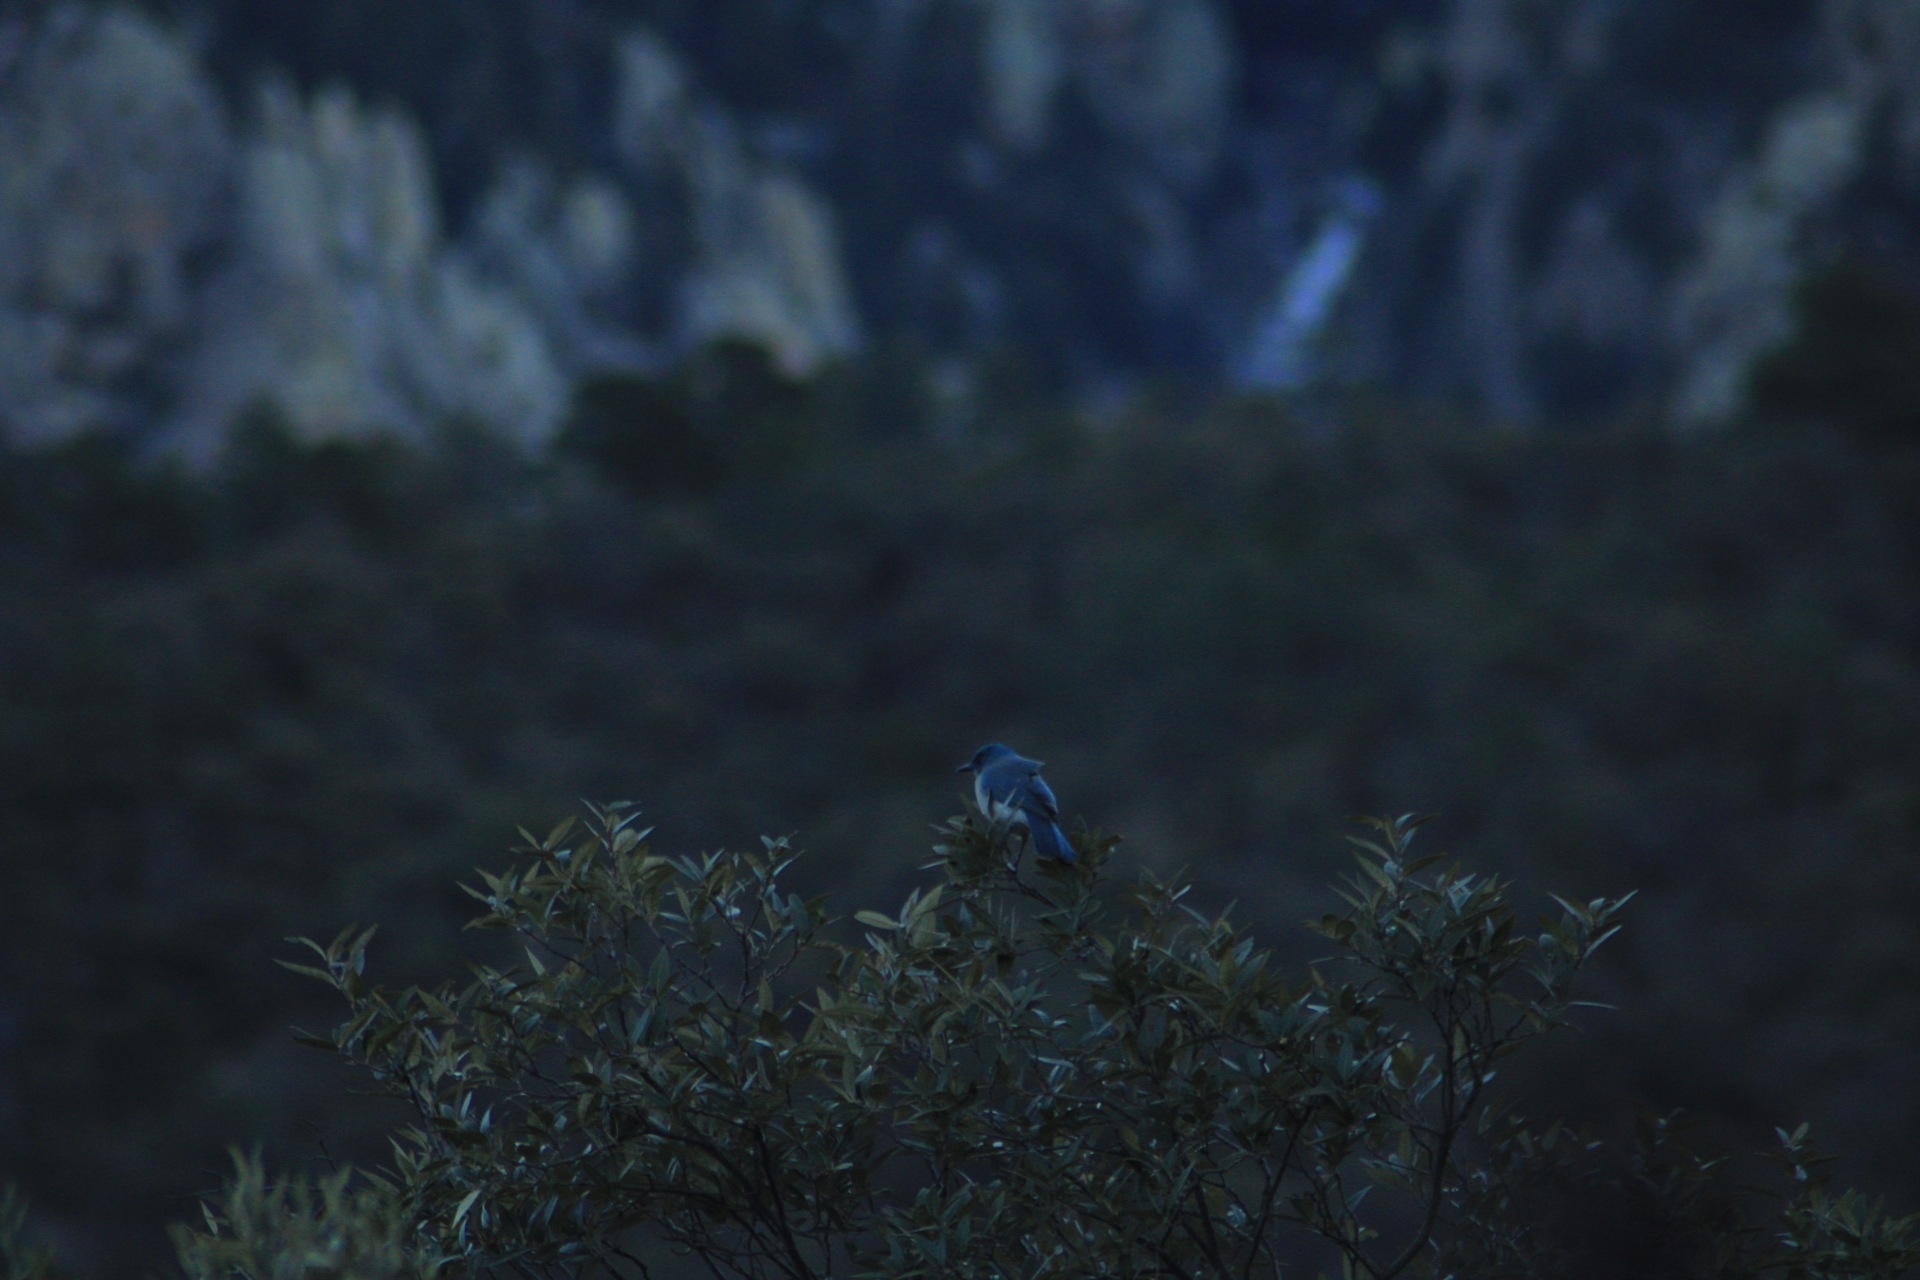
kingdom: Animalia
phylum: Chordata
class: Aves
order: Passeriformes
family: Corvidae
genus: Aphelocoma
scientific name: Aphelocoma wollweberi
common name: Mexican jay
